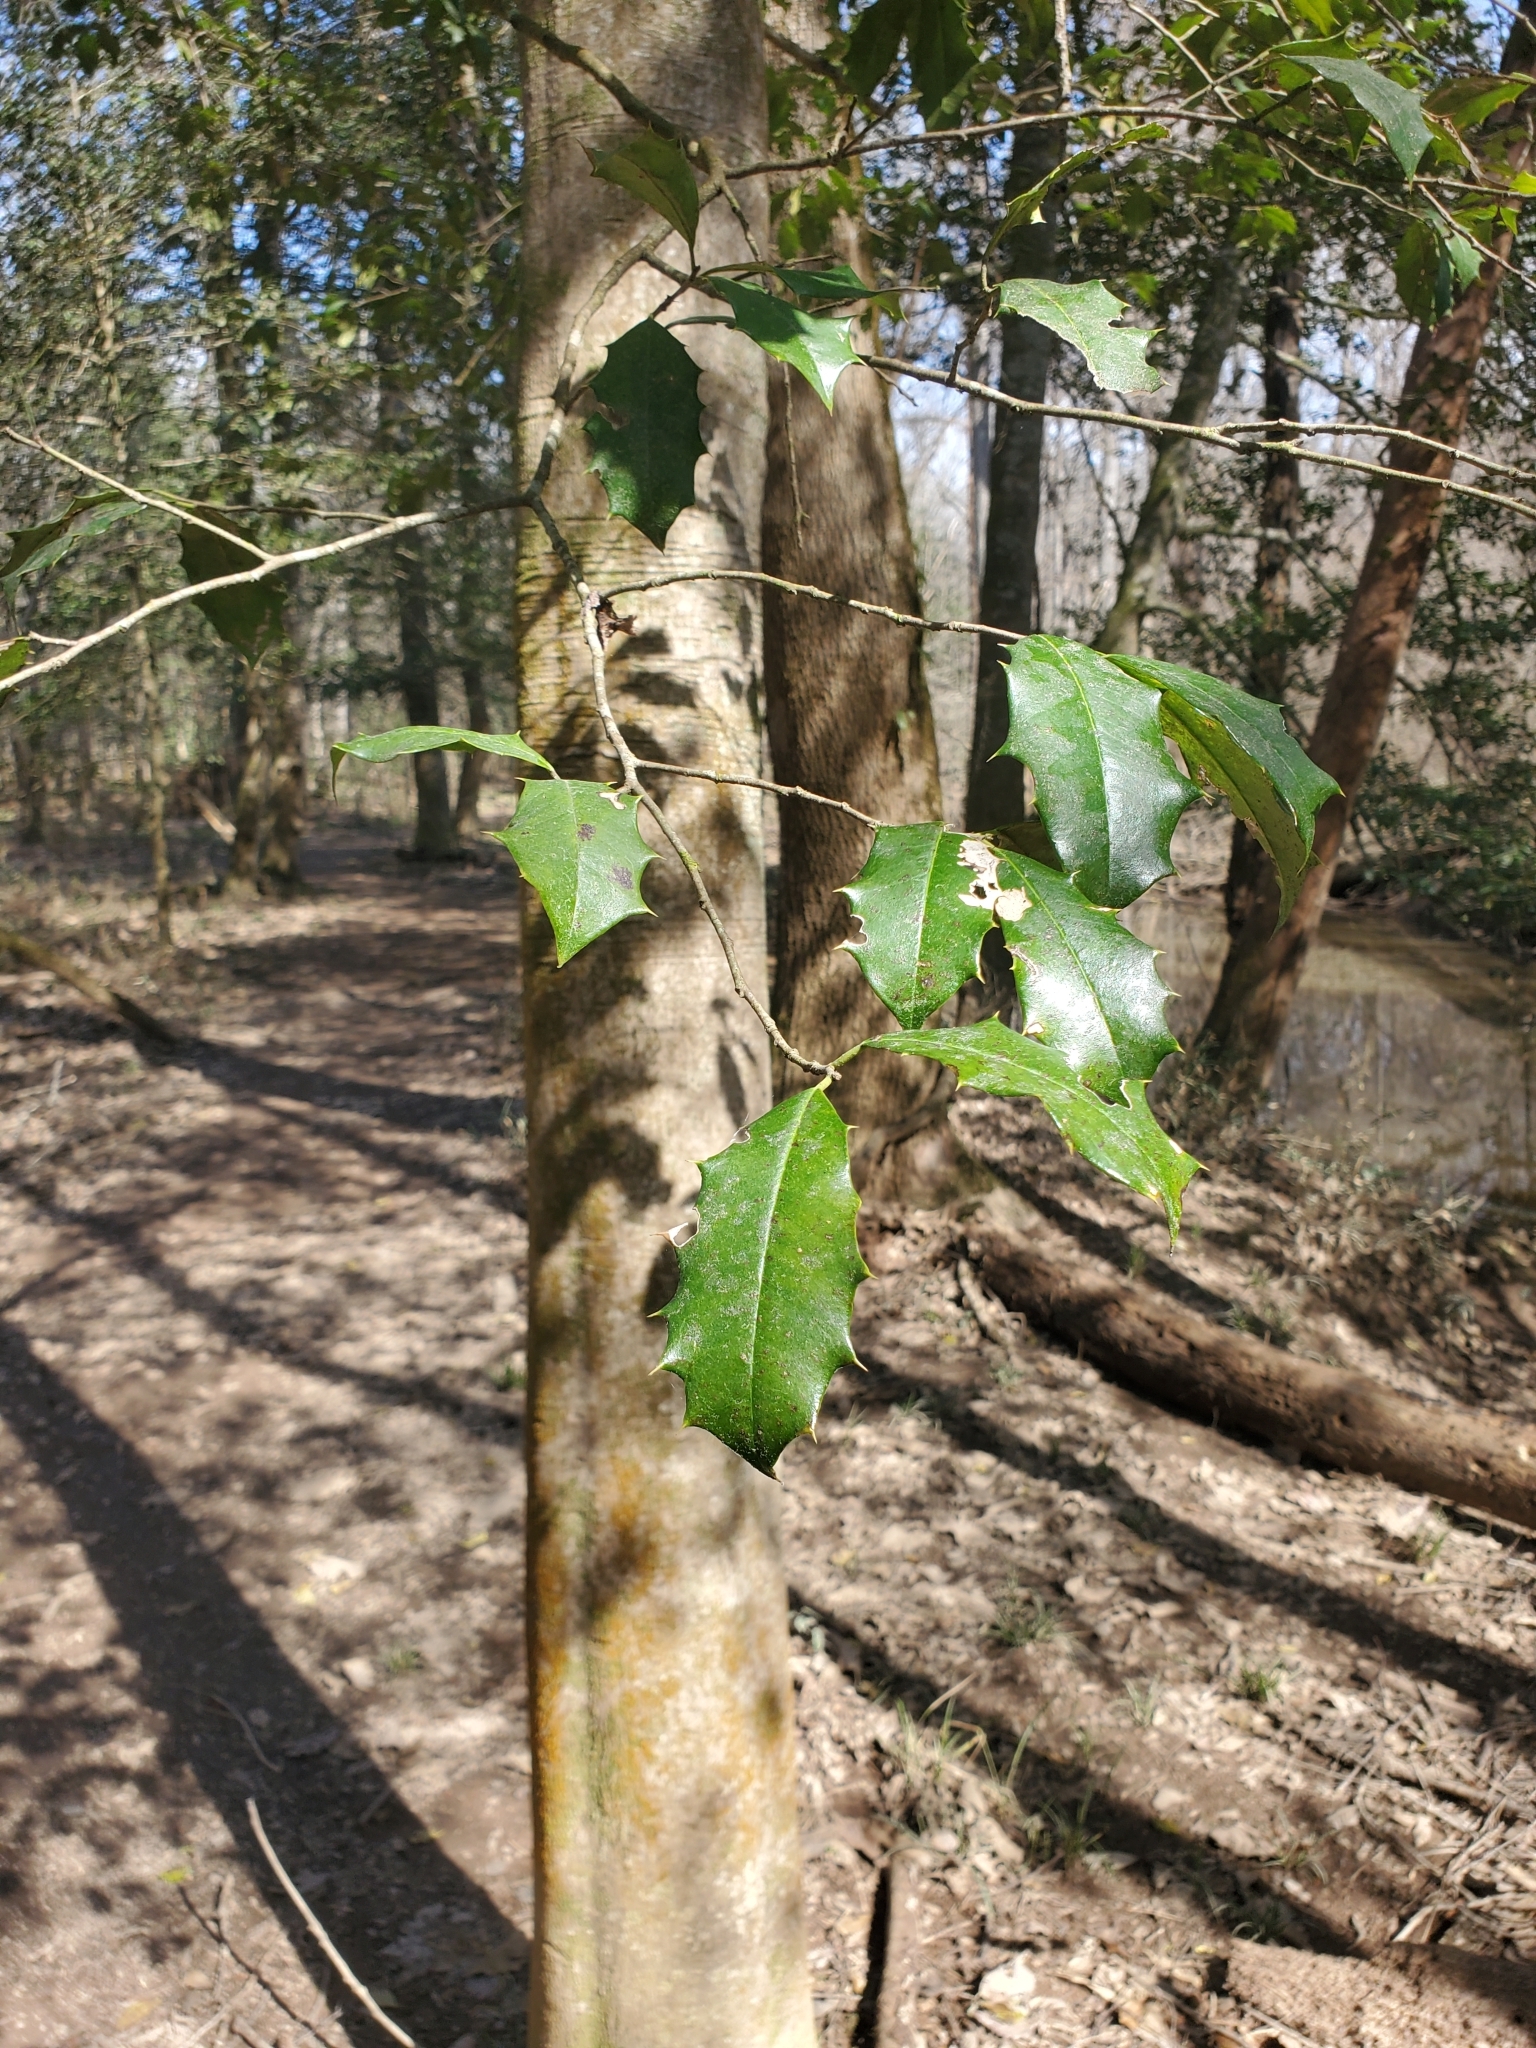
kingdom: Plantae
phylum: Tracheophyta
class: Magnoliopsida
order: Aquifoliales
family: Aquifoliaceae
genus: Ilex
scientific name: Ilex opaca
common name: American holly
